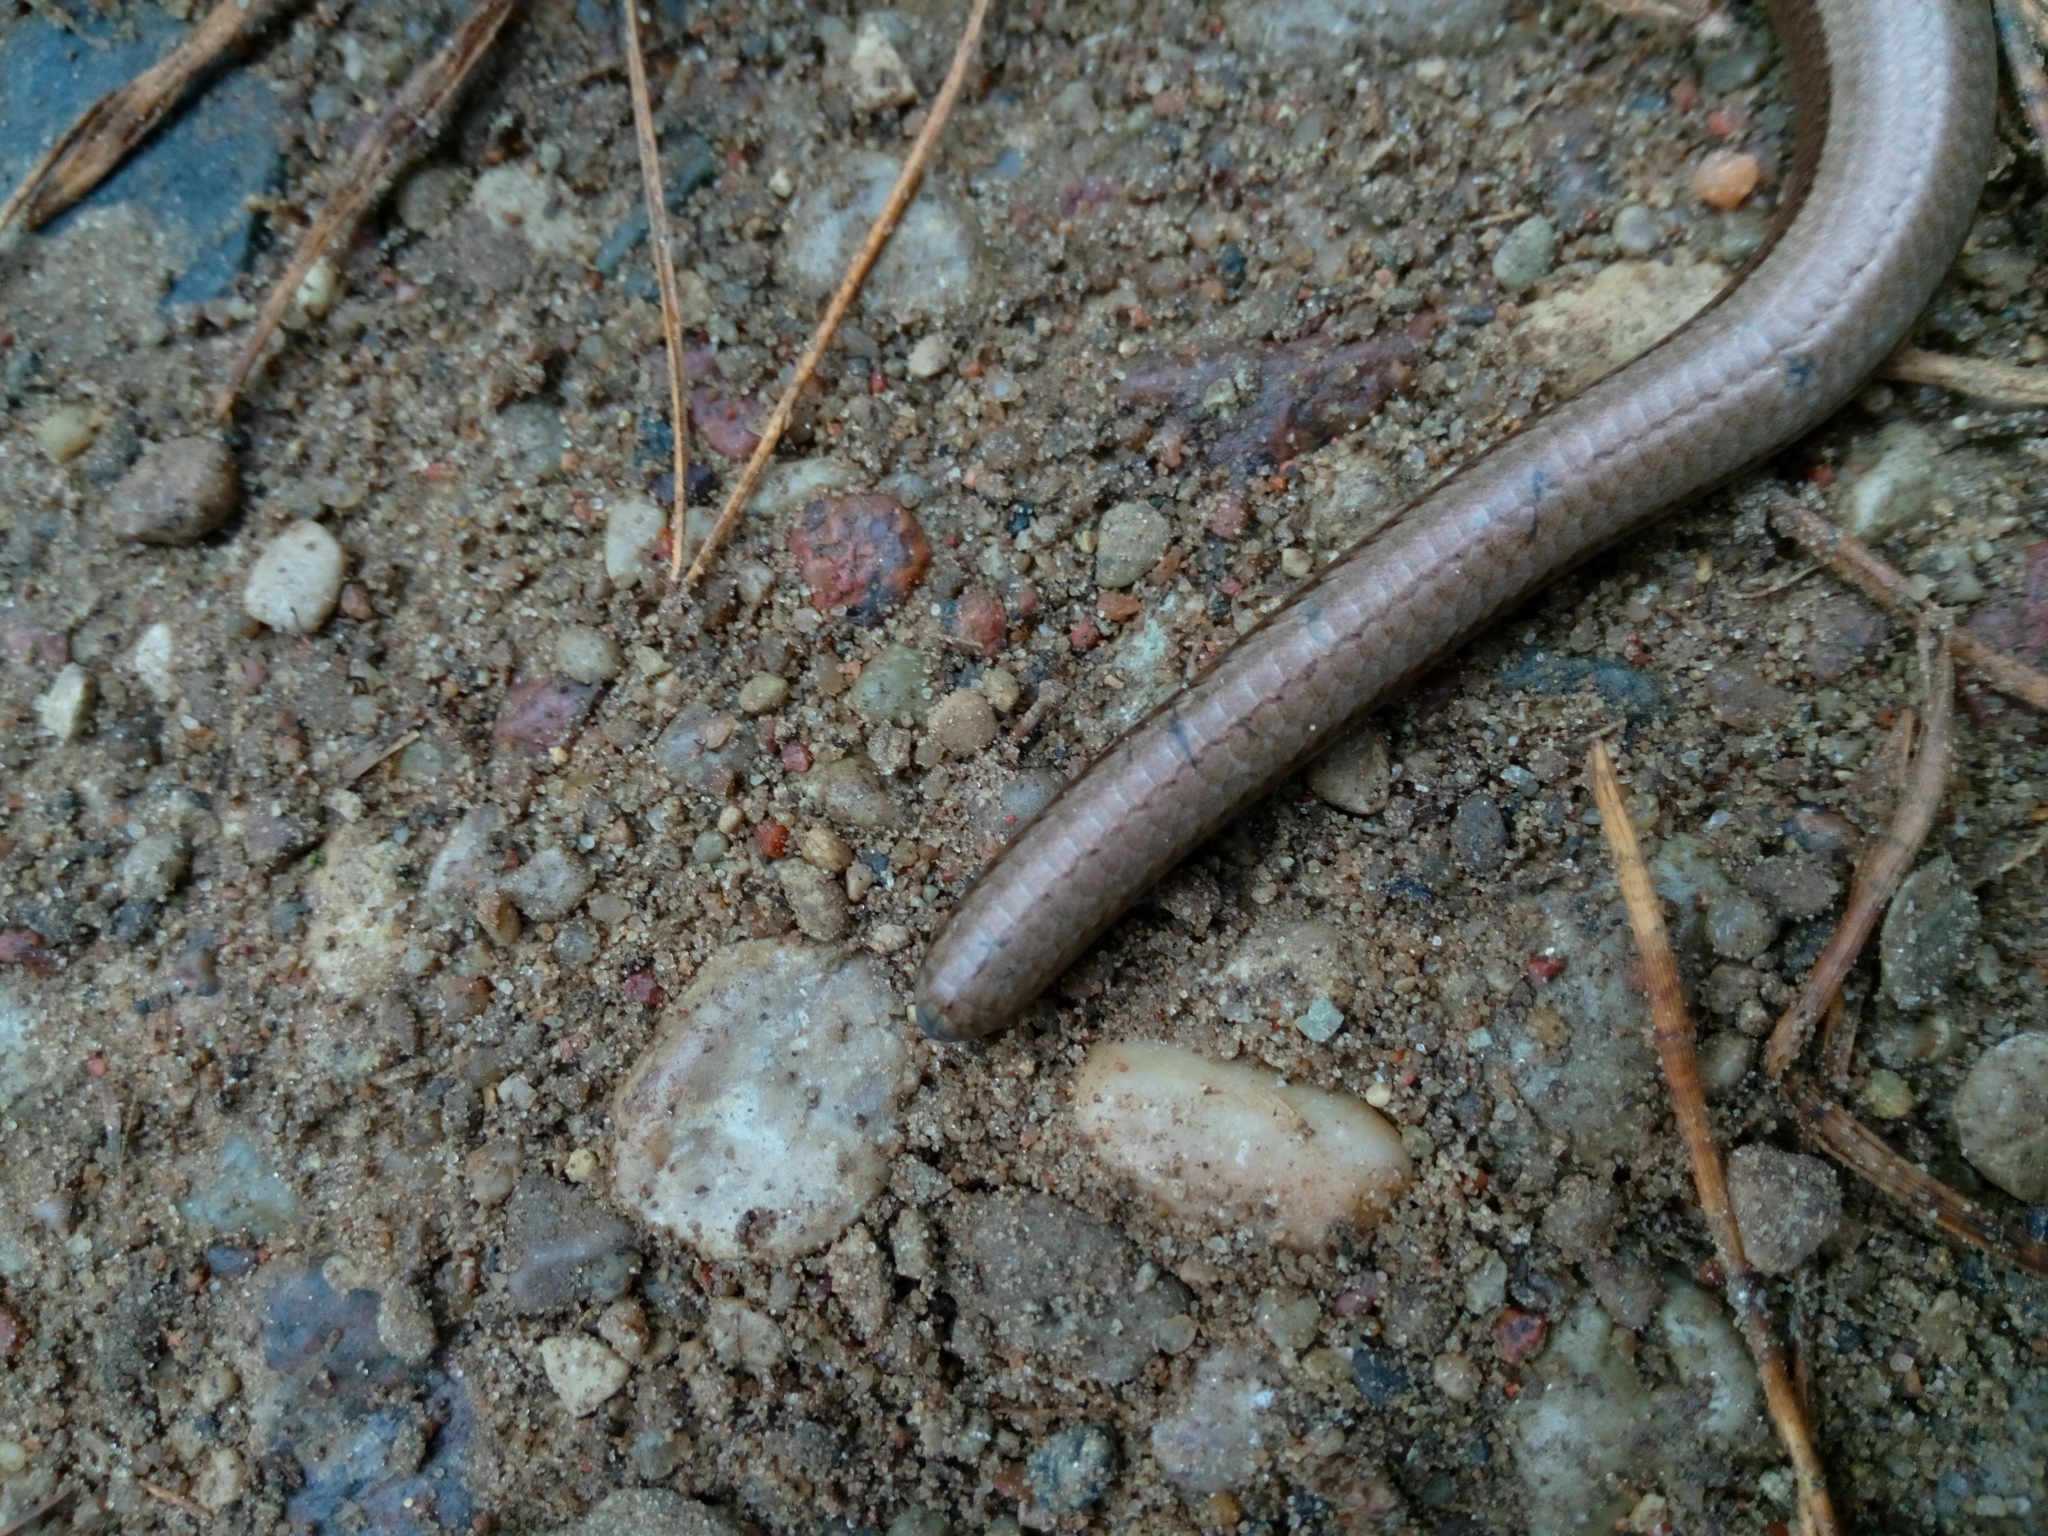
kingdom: Animalia
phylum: Chordata
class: Squamata
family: Anguidae
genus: Anguis
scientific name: Anguis fragilis
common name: Slow worm
